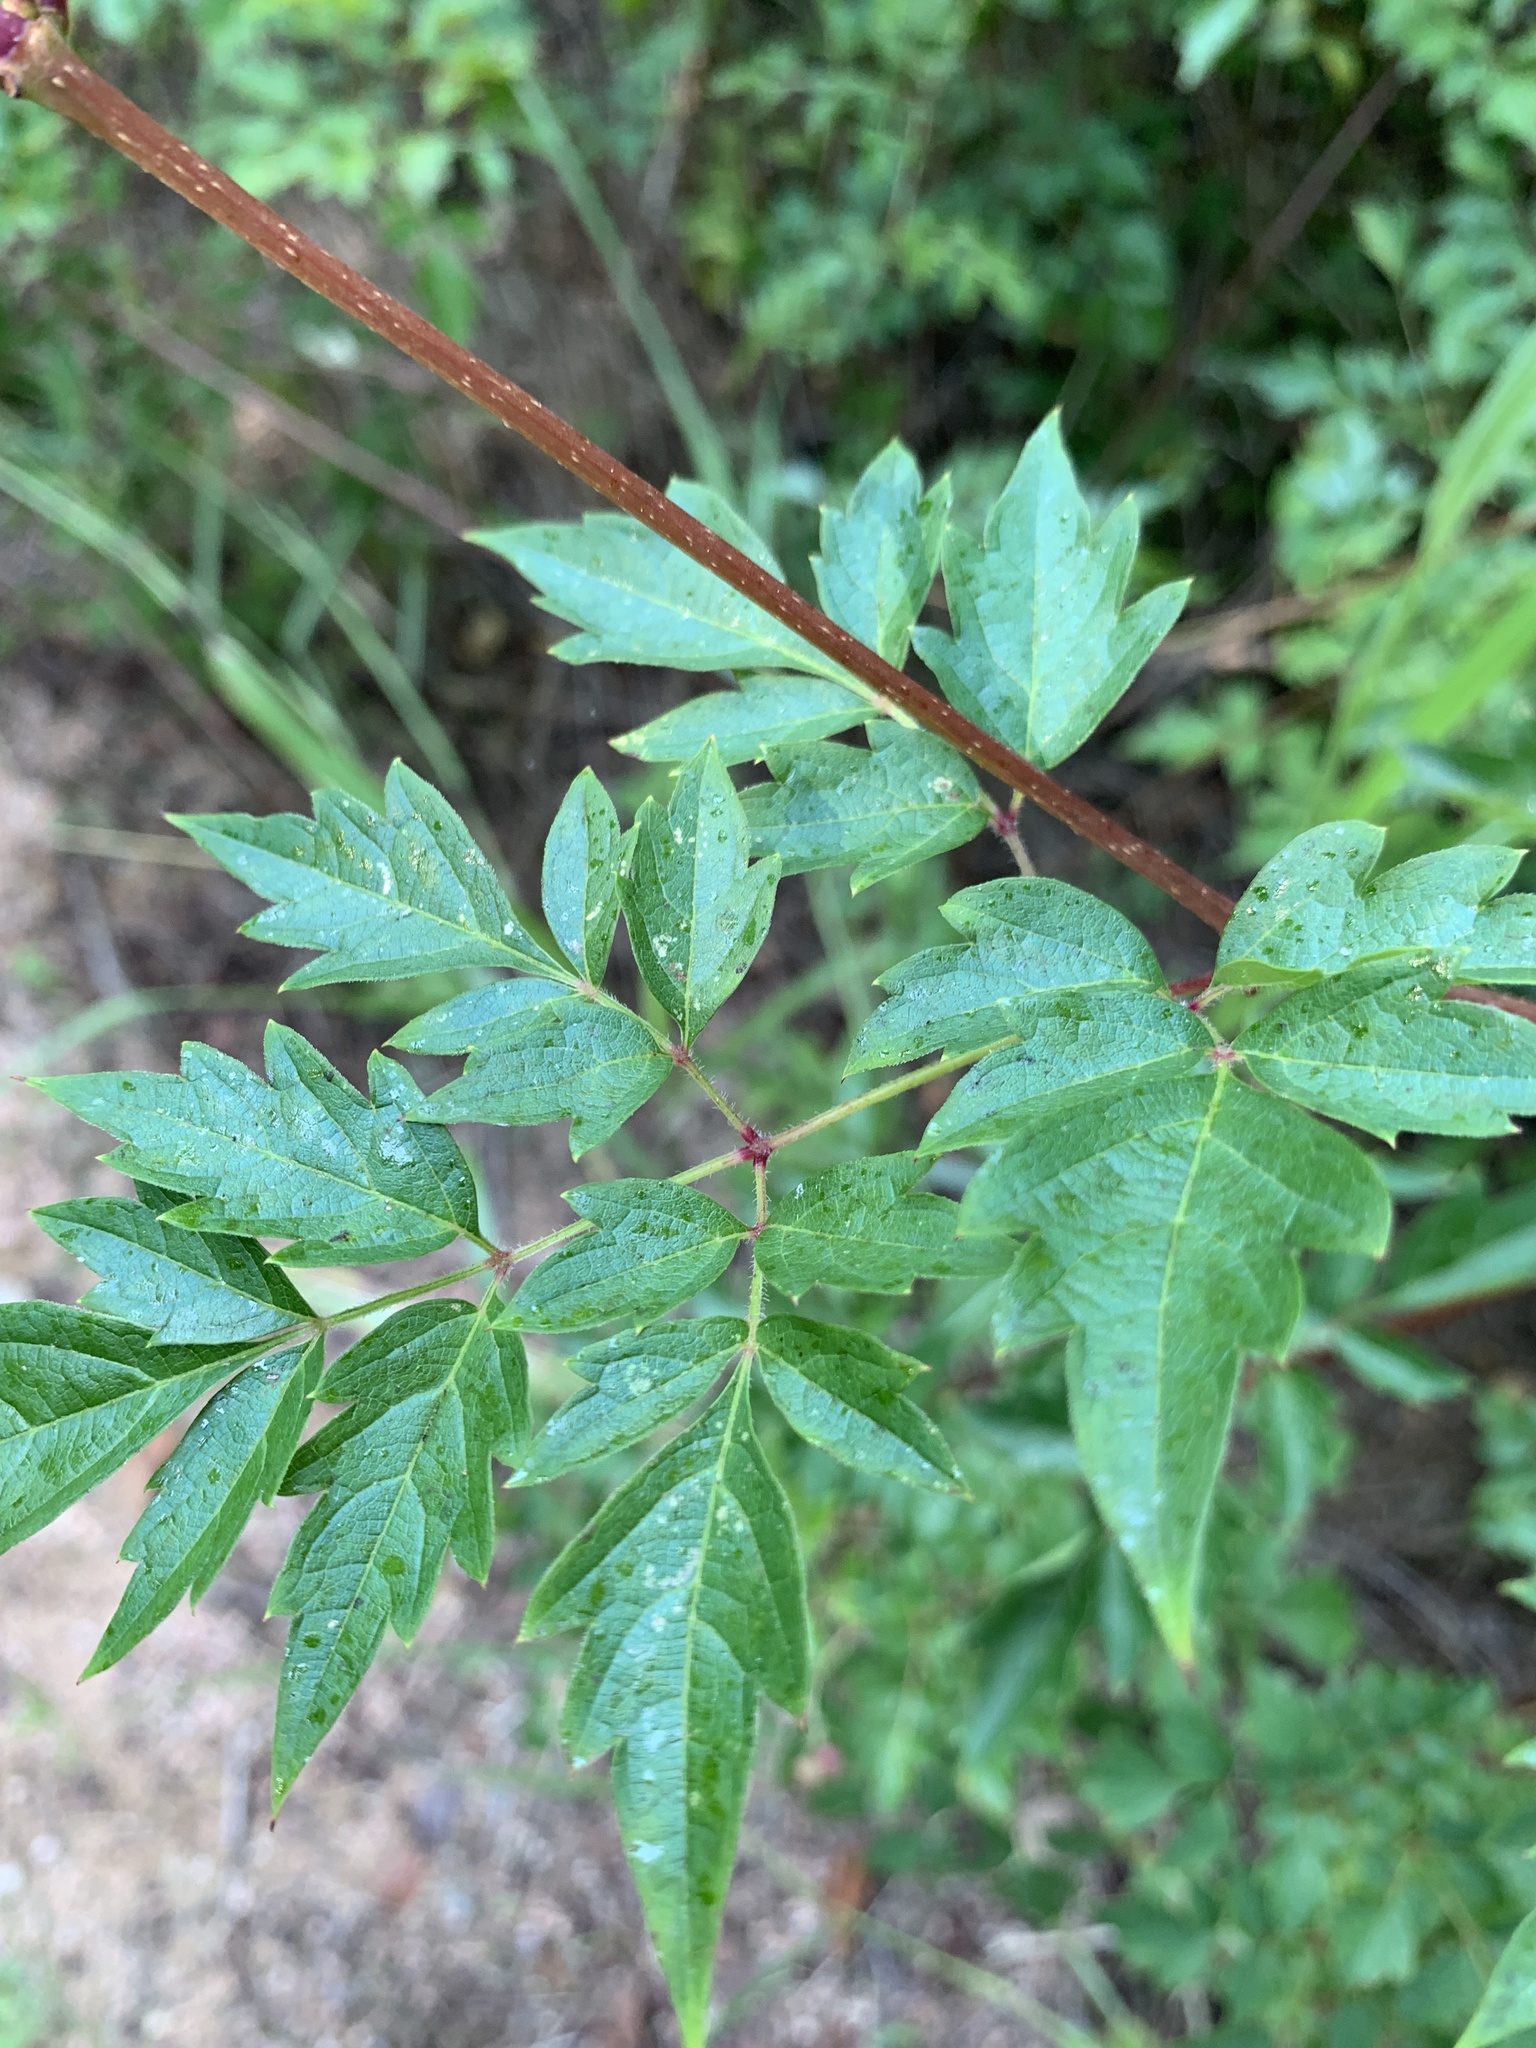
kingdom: Plantae
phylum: Tracheophyta
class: Magnoliopsida
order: Vitales
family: Vitaceae
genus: Nekemias
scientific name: Nekemias arborea
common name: Peppervine
